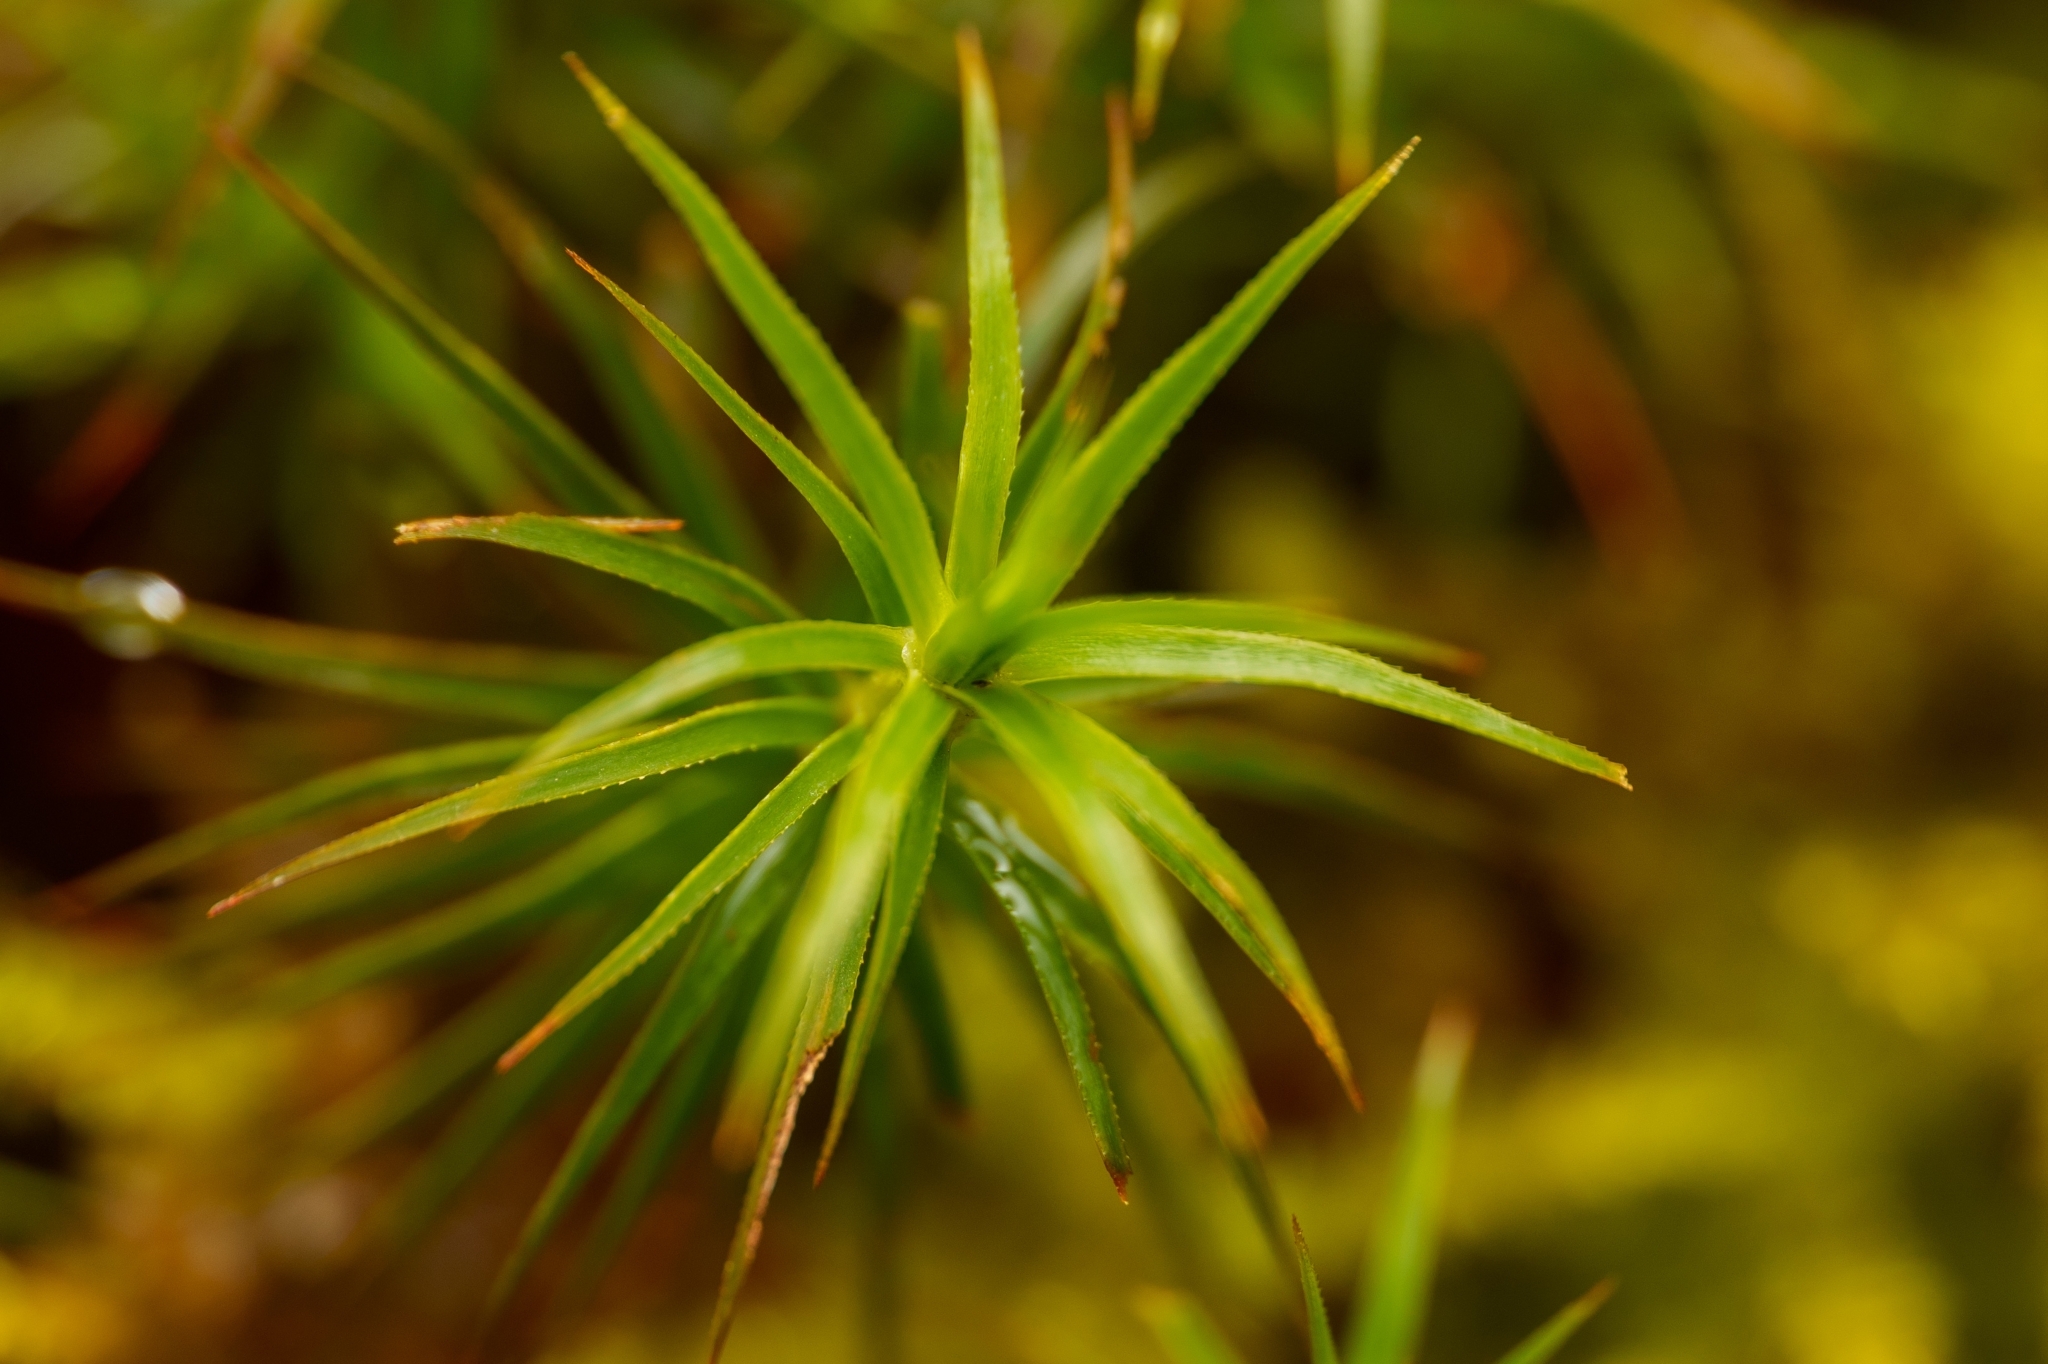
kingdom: Plantae
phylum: Bryophyta
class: Polytrichopsida
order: Polytrichales
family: Polytrichaceae
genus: Polytrichastrum
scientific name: Polytrichastrum alpinum
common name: Alpine haircap
